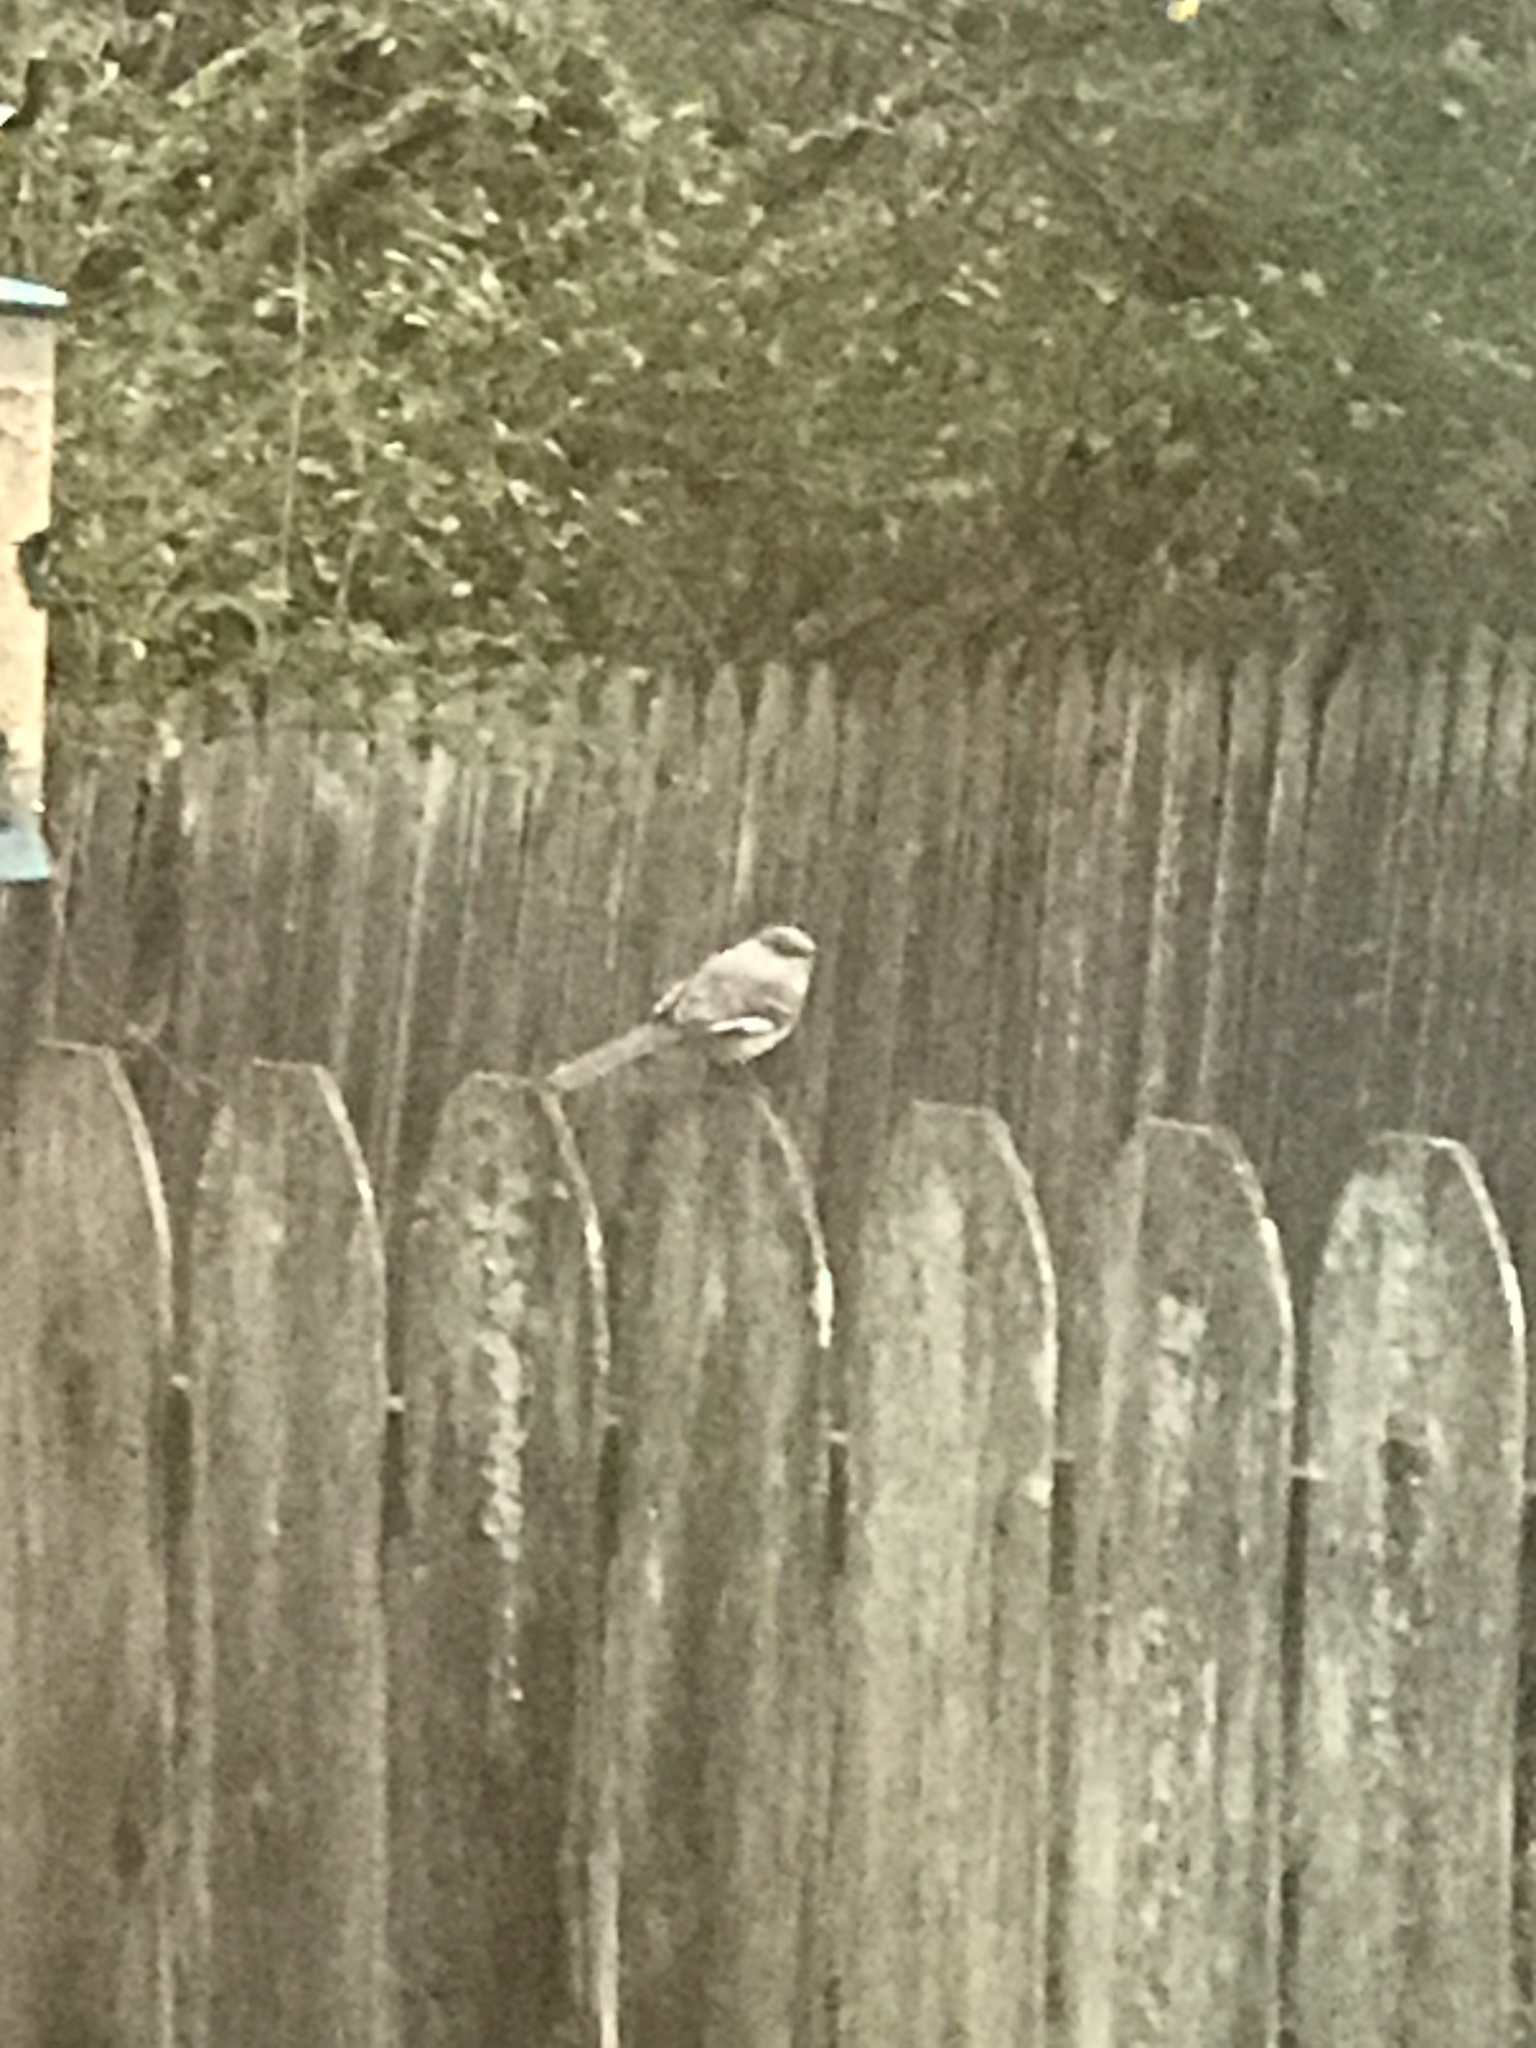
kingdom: Animalia
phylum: Chordata
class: Aves
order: Passeriformes
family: Mimidae
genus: Mimus
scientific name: Mimus polyglottos
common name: Northern mockingbird
